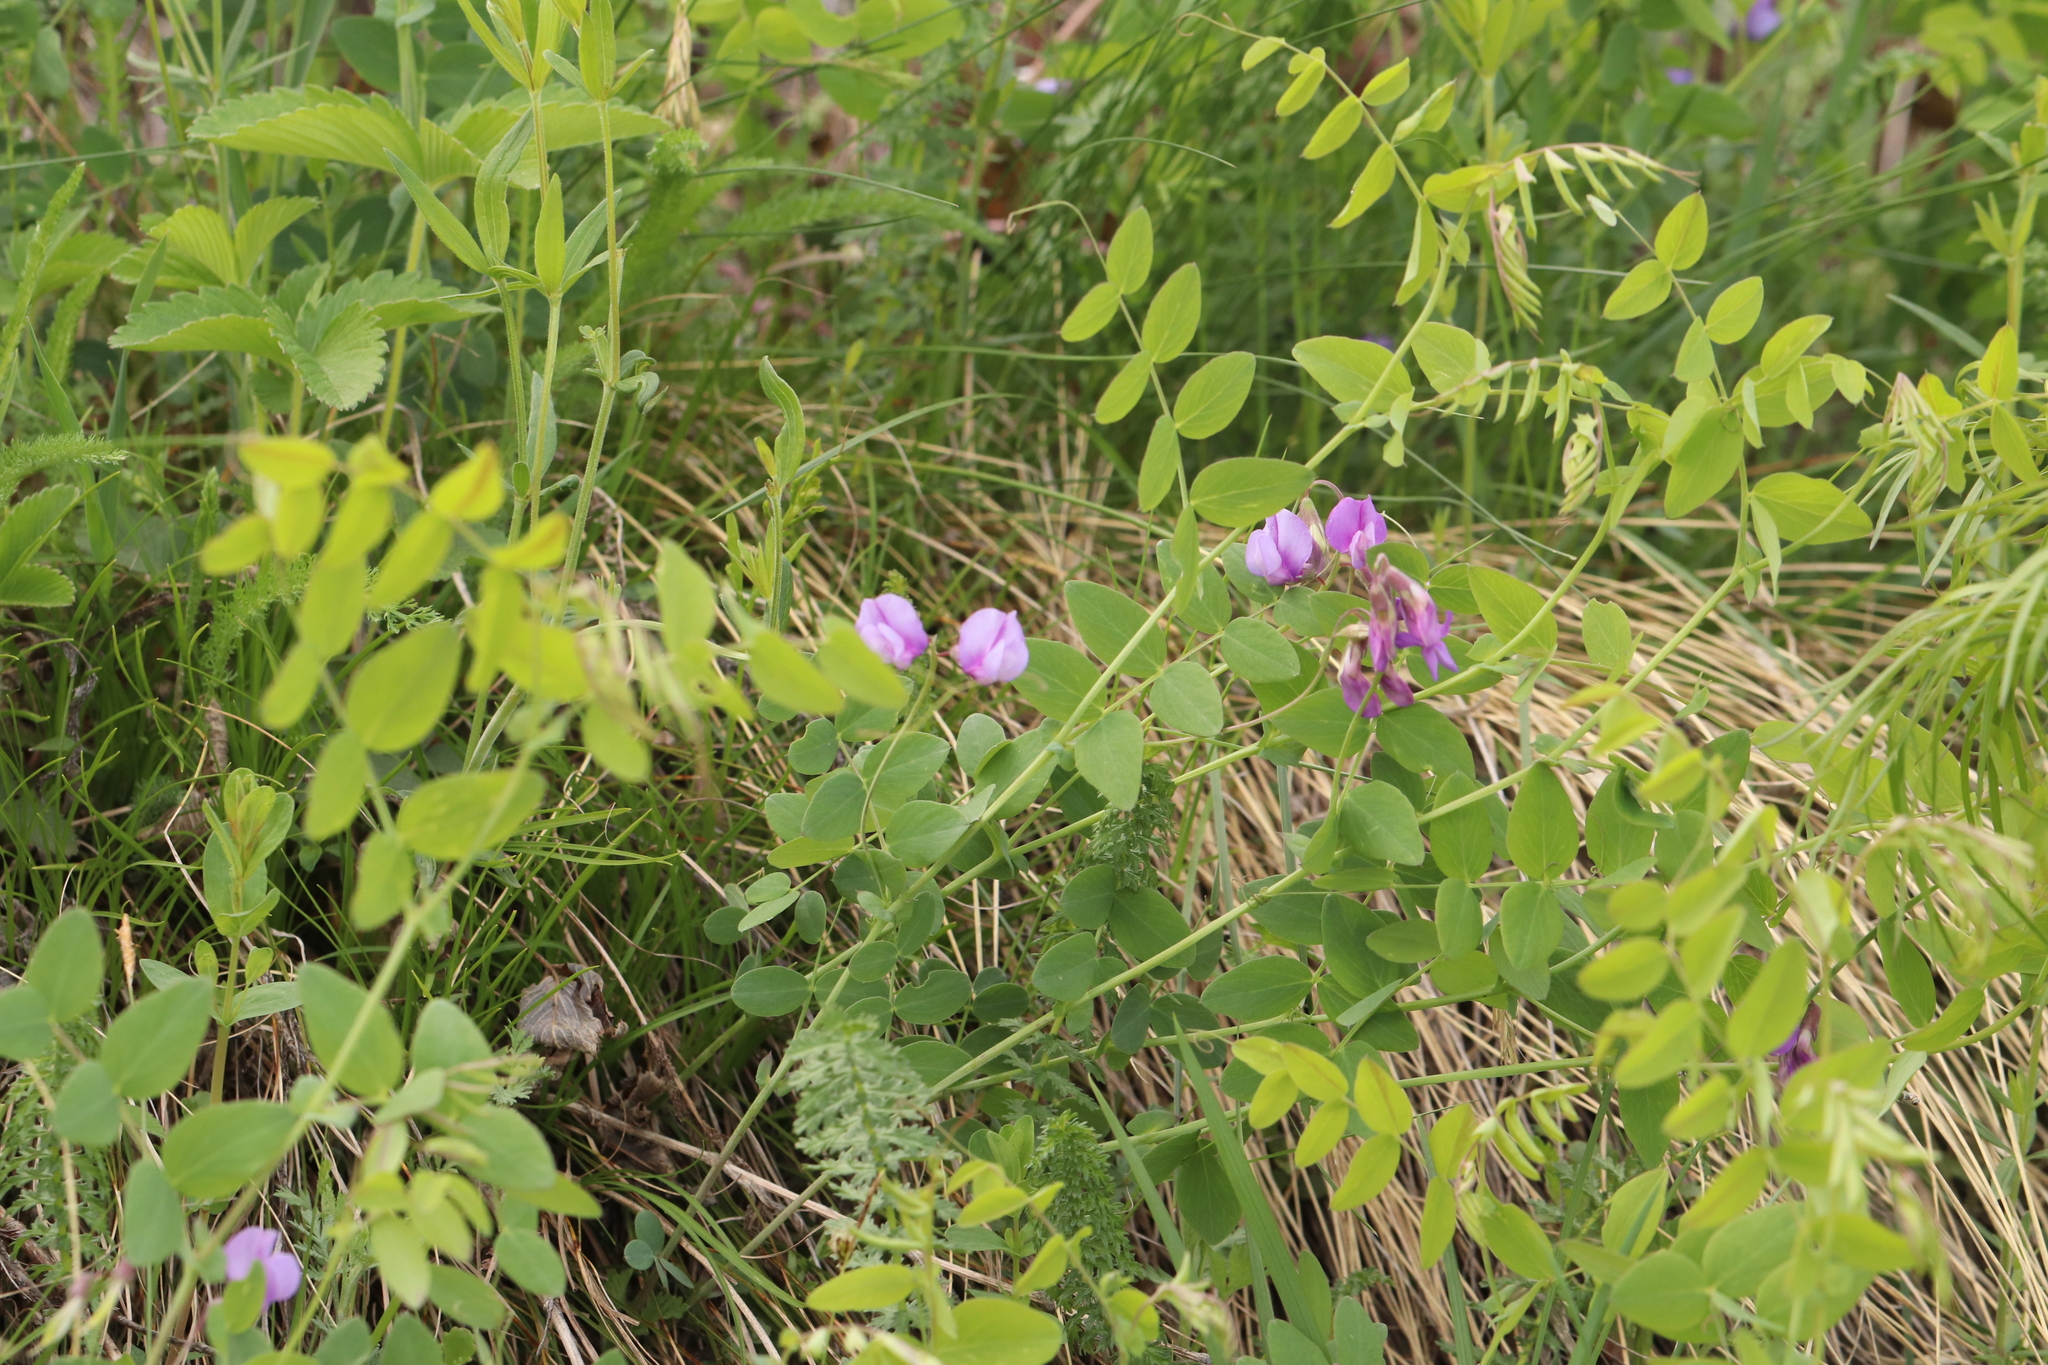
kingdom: Plantae
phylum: Tracheophyta
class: Magnoliopsida
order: Fabales
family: Fabaceae
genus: Lathyrus
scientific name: Lathyrus humilis
